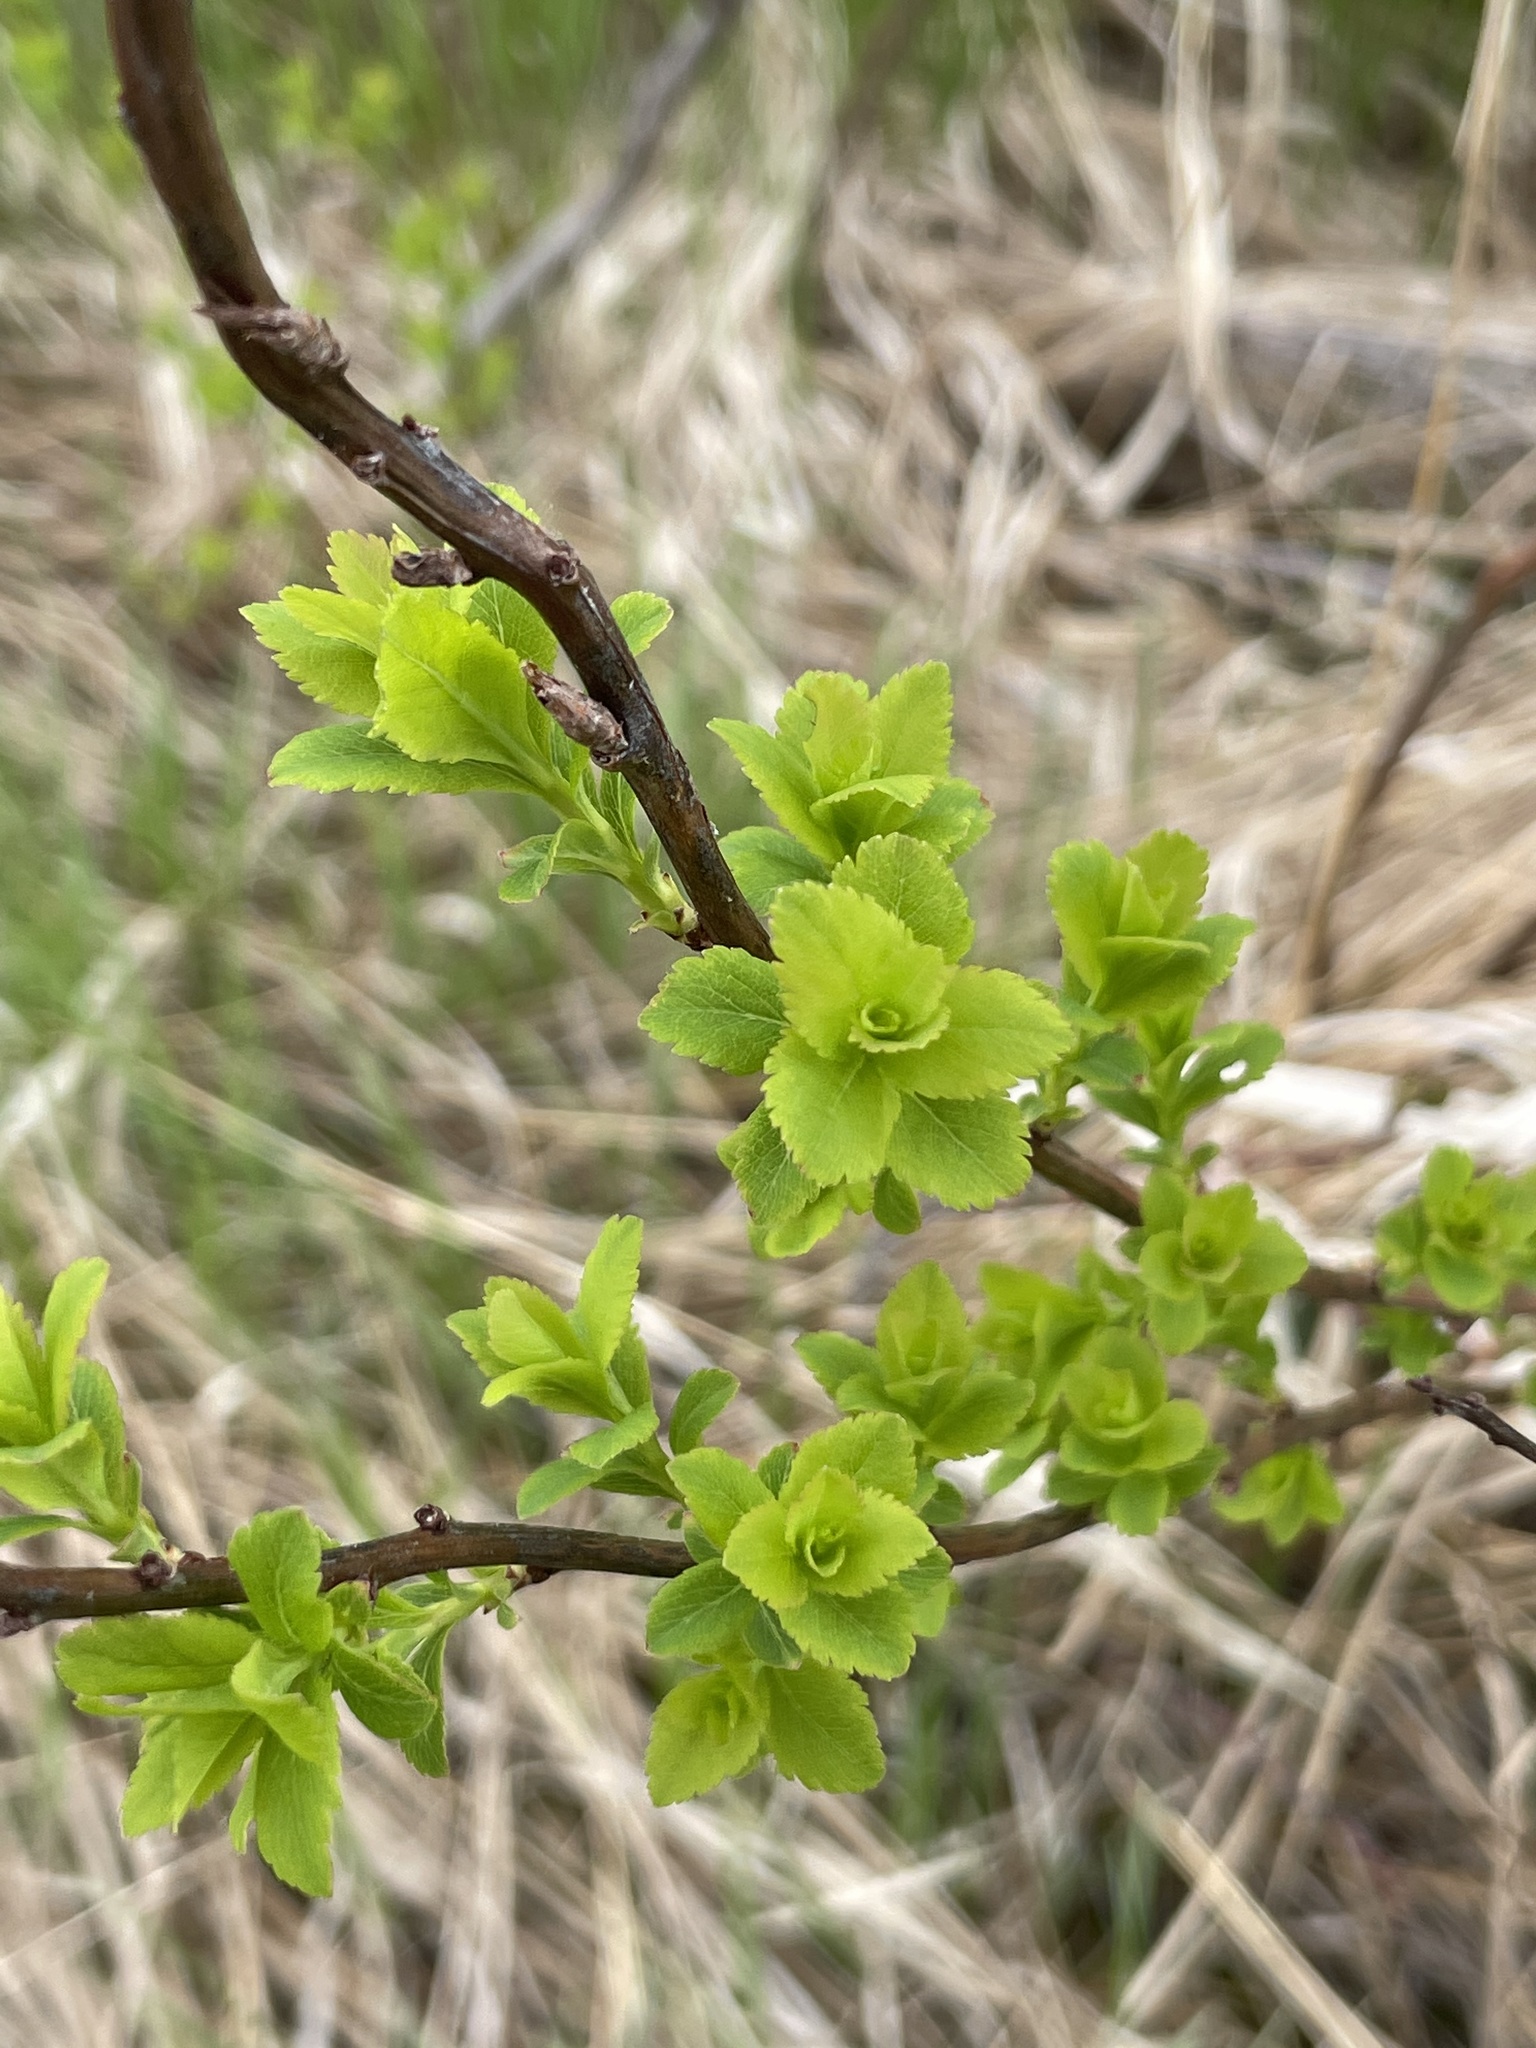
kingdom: Plantae
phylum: Tracheophyta
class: Magnoliopsida
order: Rosales
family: Rosaceae
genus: Spiraea
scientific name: Spiraea alba
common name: Pale bridewort
